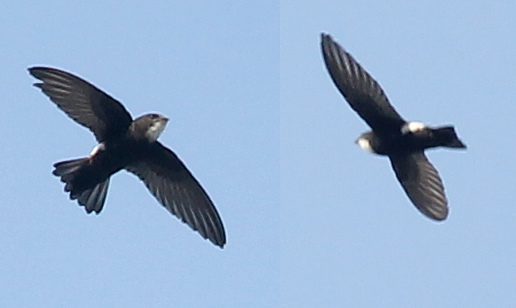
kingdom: Animalia
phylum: Chordata
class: Aves
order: Apodiformes
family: Apodidae
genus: Apus
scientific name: Apus nipalensis
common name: House swift
